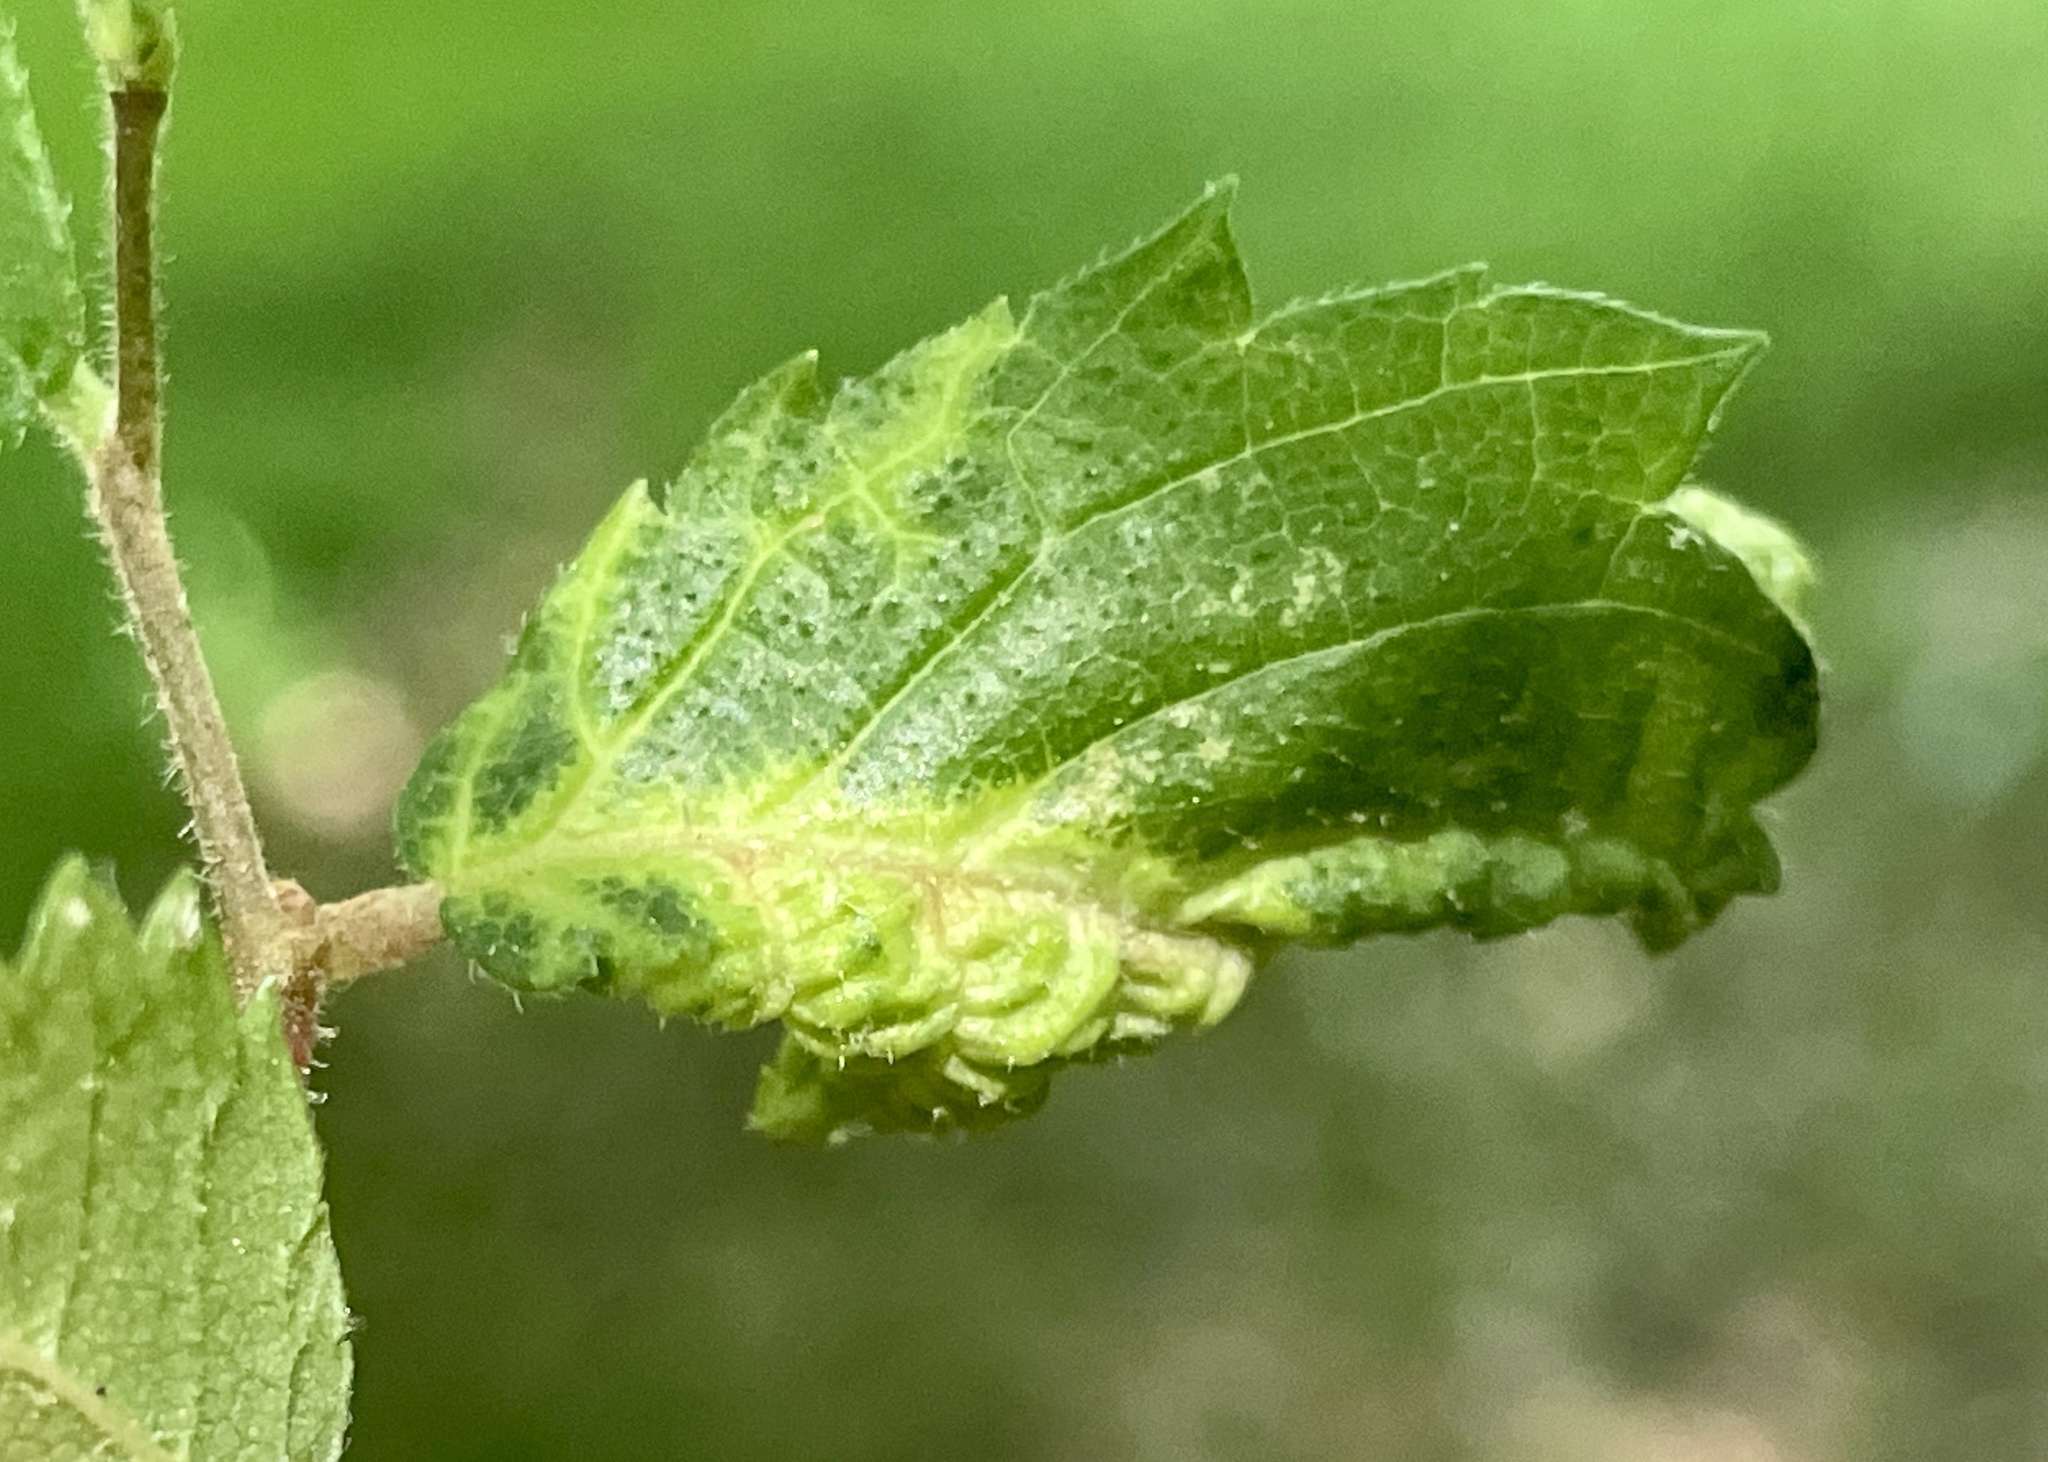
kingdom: Animalia
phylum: Arthropoda
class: Insecta
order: Hemiptera
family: Aphididae
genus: Eriosoma
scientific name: Eriosoma americanum
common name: Woolly elm aphid
